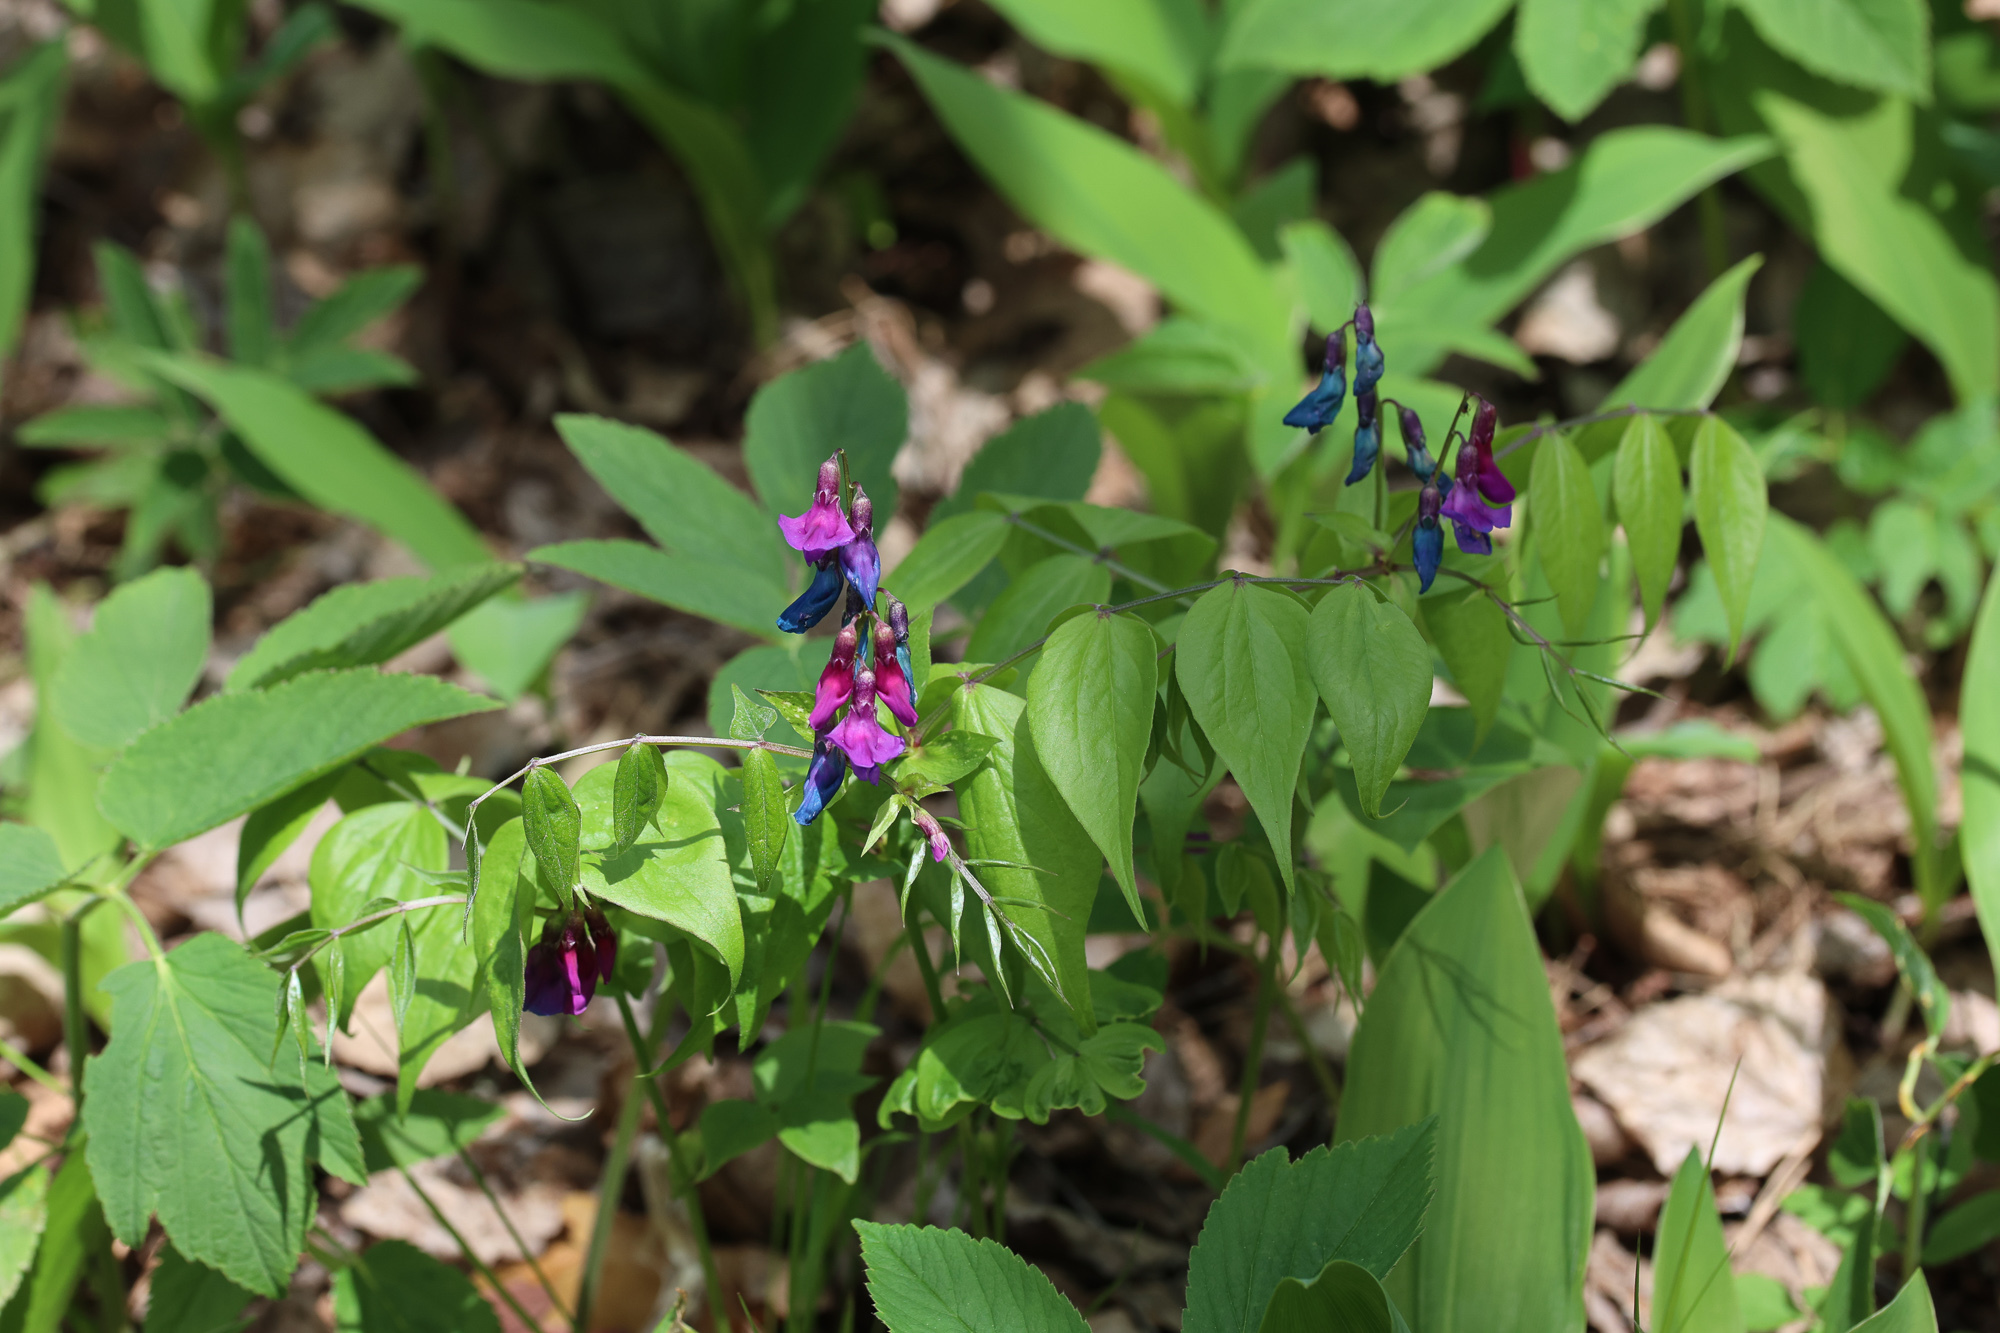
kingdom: Plantae
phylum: Tracheophyta
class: Magnoliopsida
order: Fabales
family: Fabaceae
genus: Lathyrus
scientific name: Lathyrus vernus
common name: Spring pea
